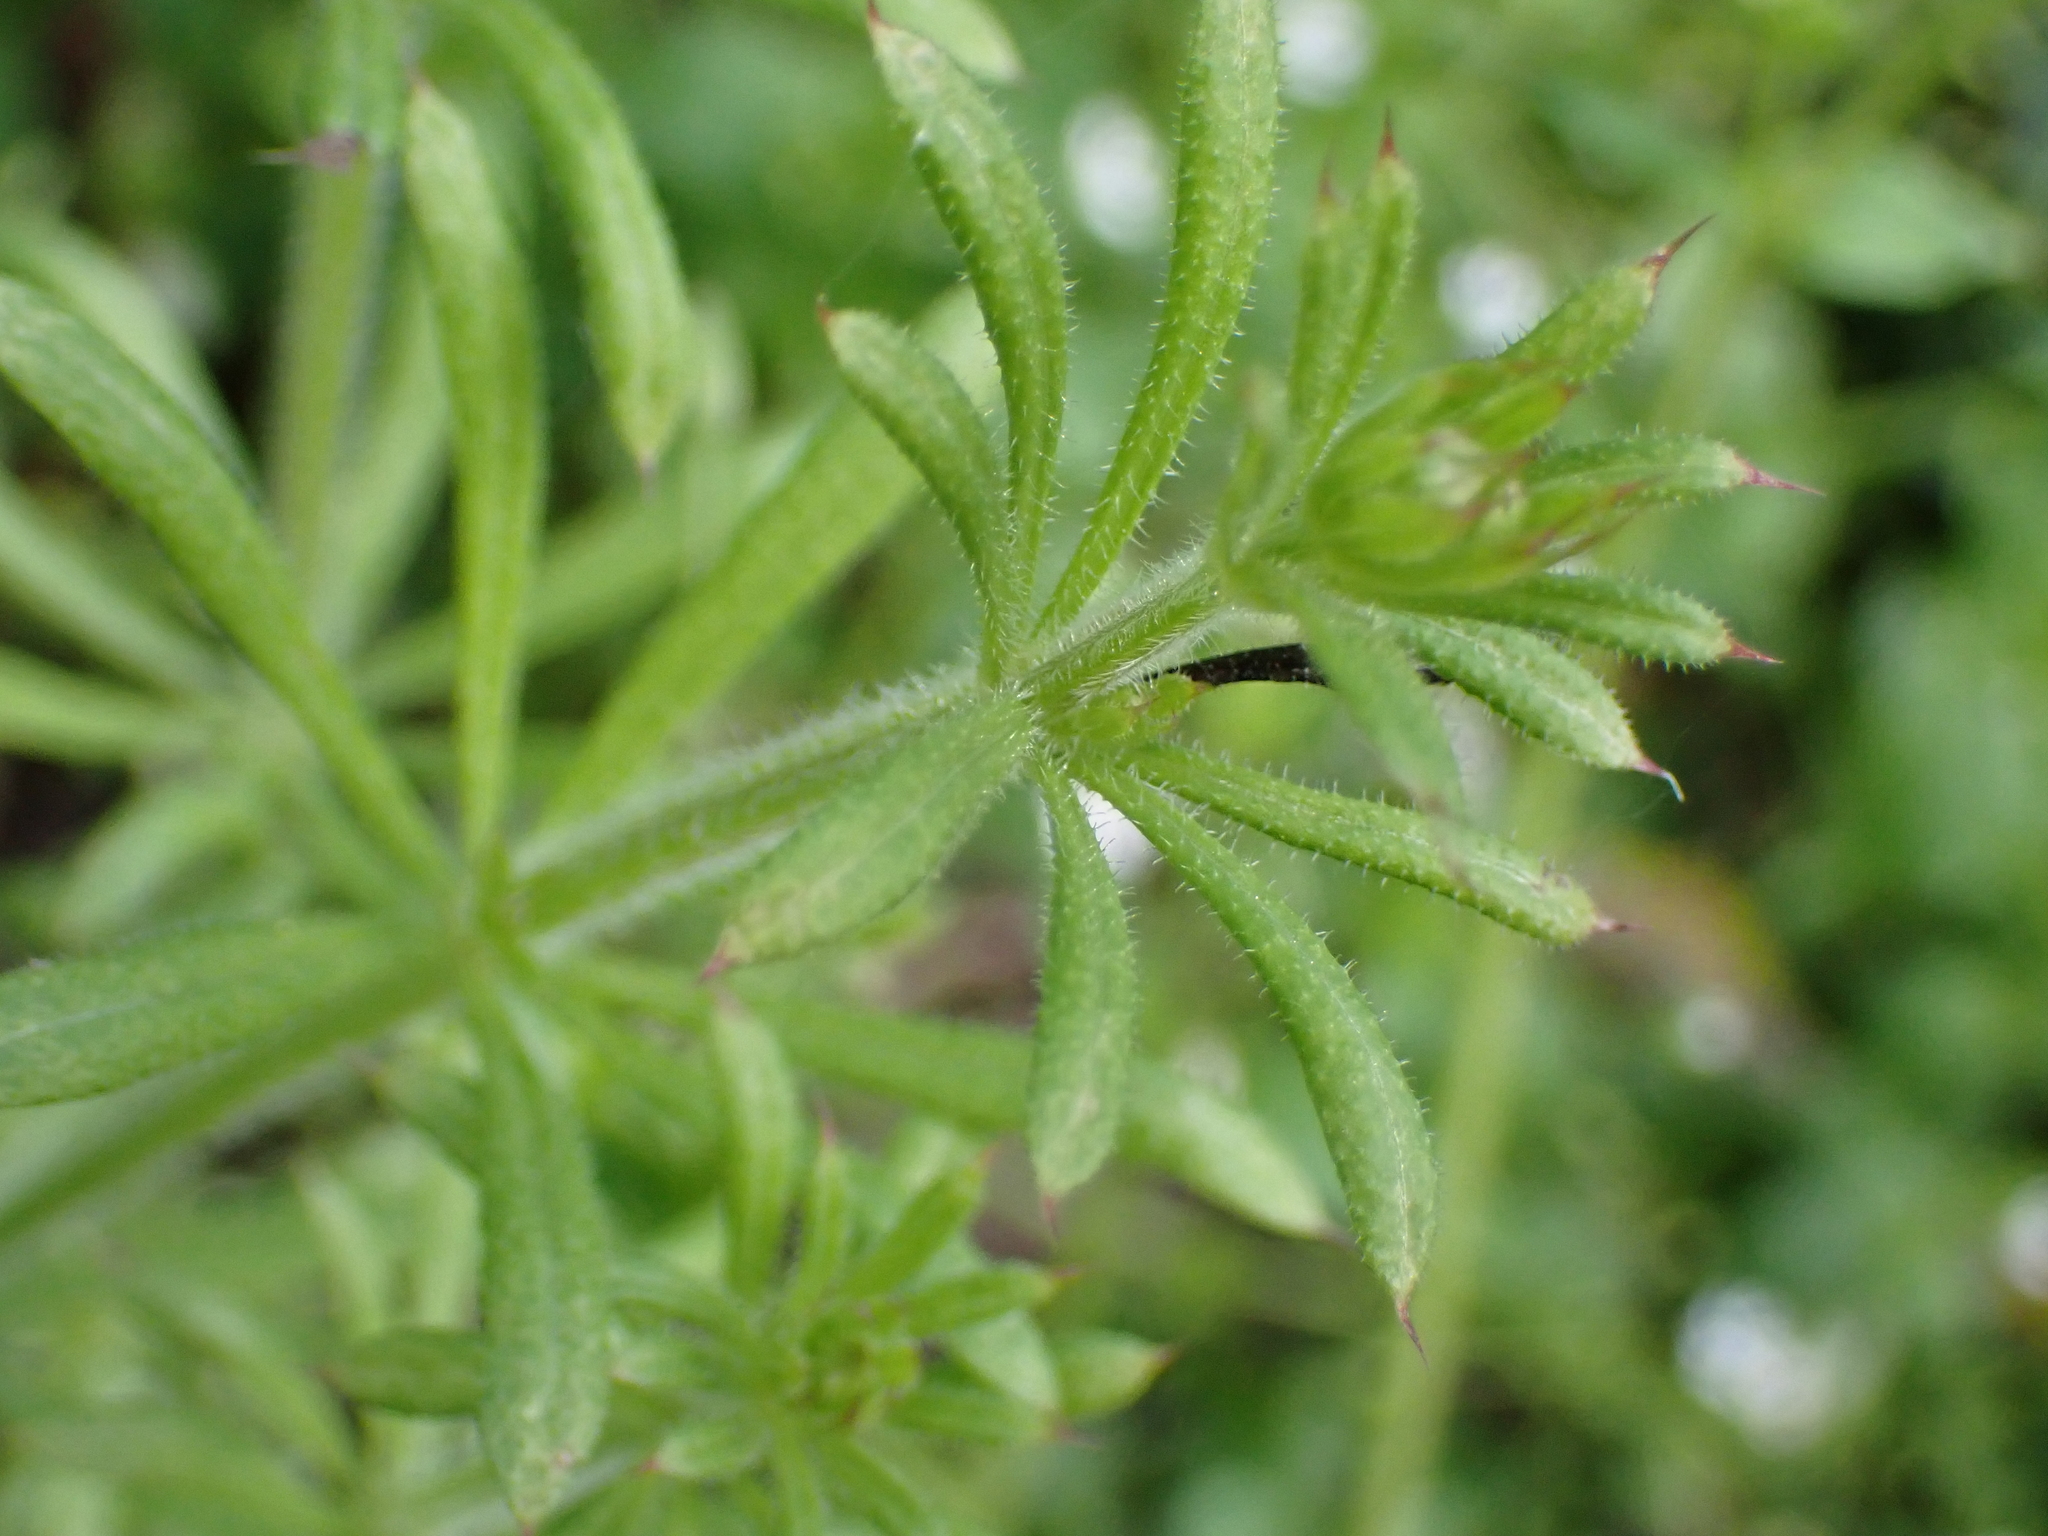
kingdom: Plantae
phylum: Tracheophyta
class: Magnoliopsida
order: Gentianales
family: Rubiaceae
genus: Galium
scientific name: Galium aparine
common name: Cleavers
